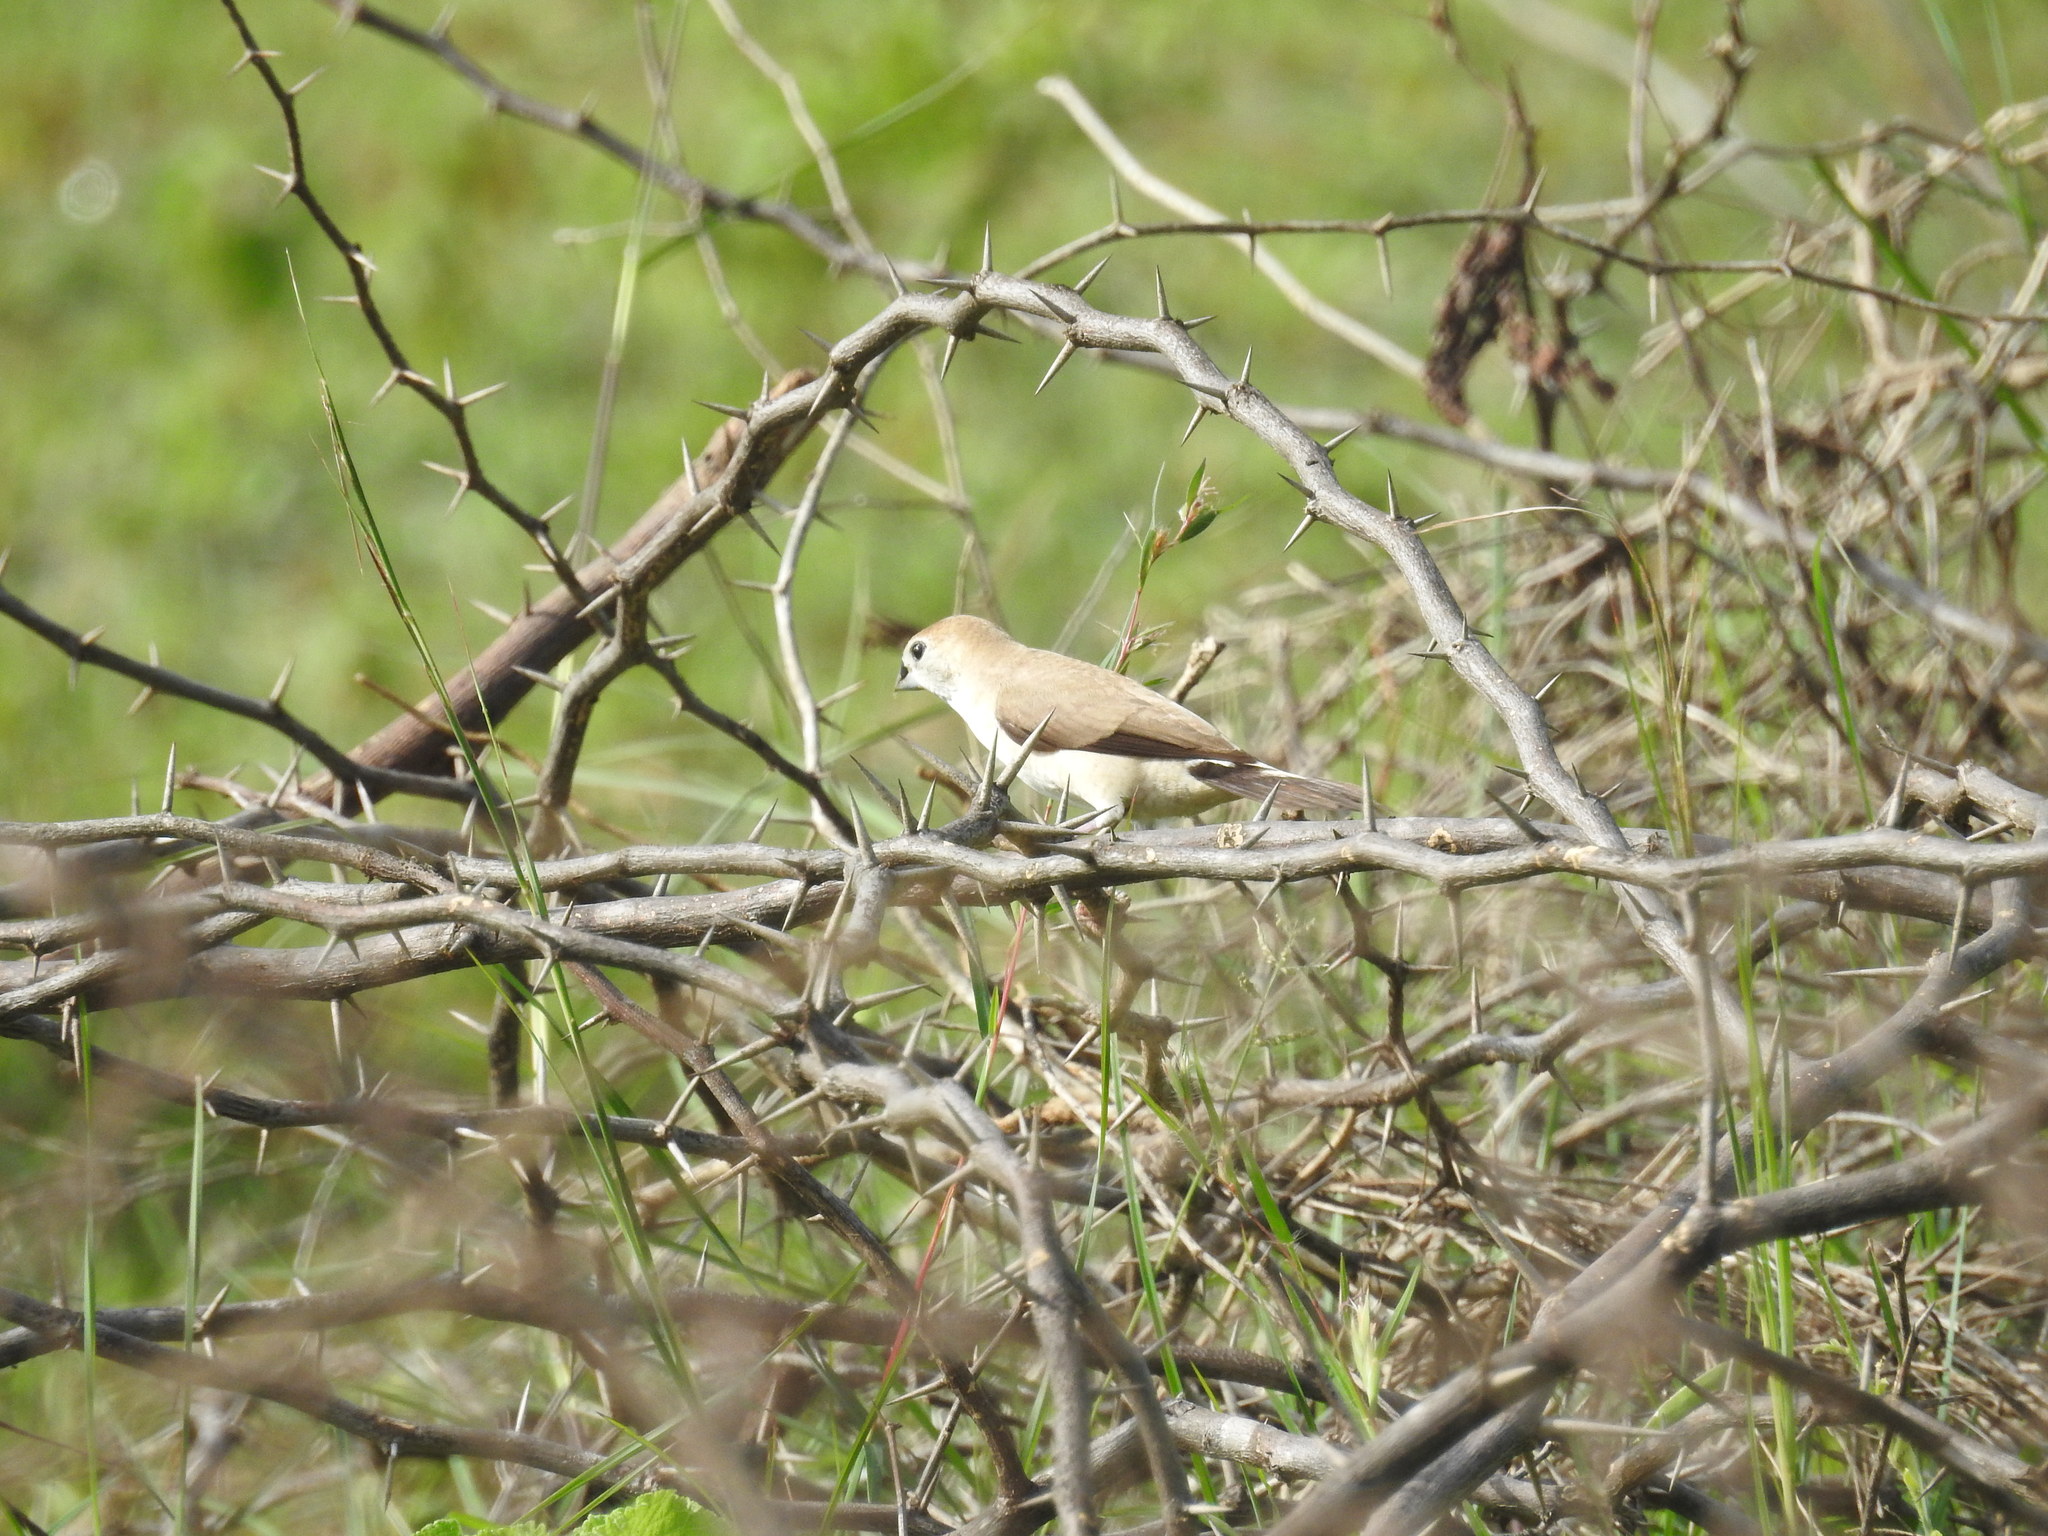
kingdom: Animalia
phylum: Chordata
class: Aves
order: Passeriformes
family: Estrildidae
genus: Euodice
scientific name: Euodice malabarica
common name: Indian silverbill
